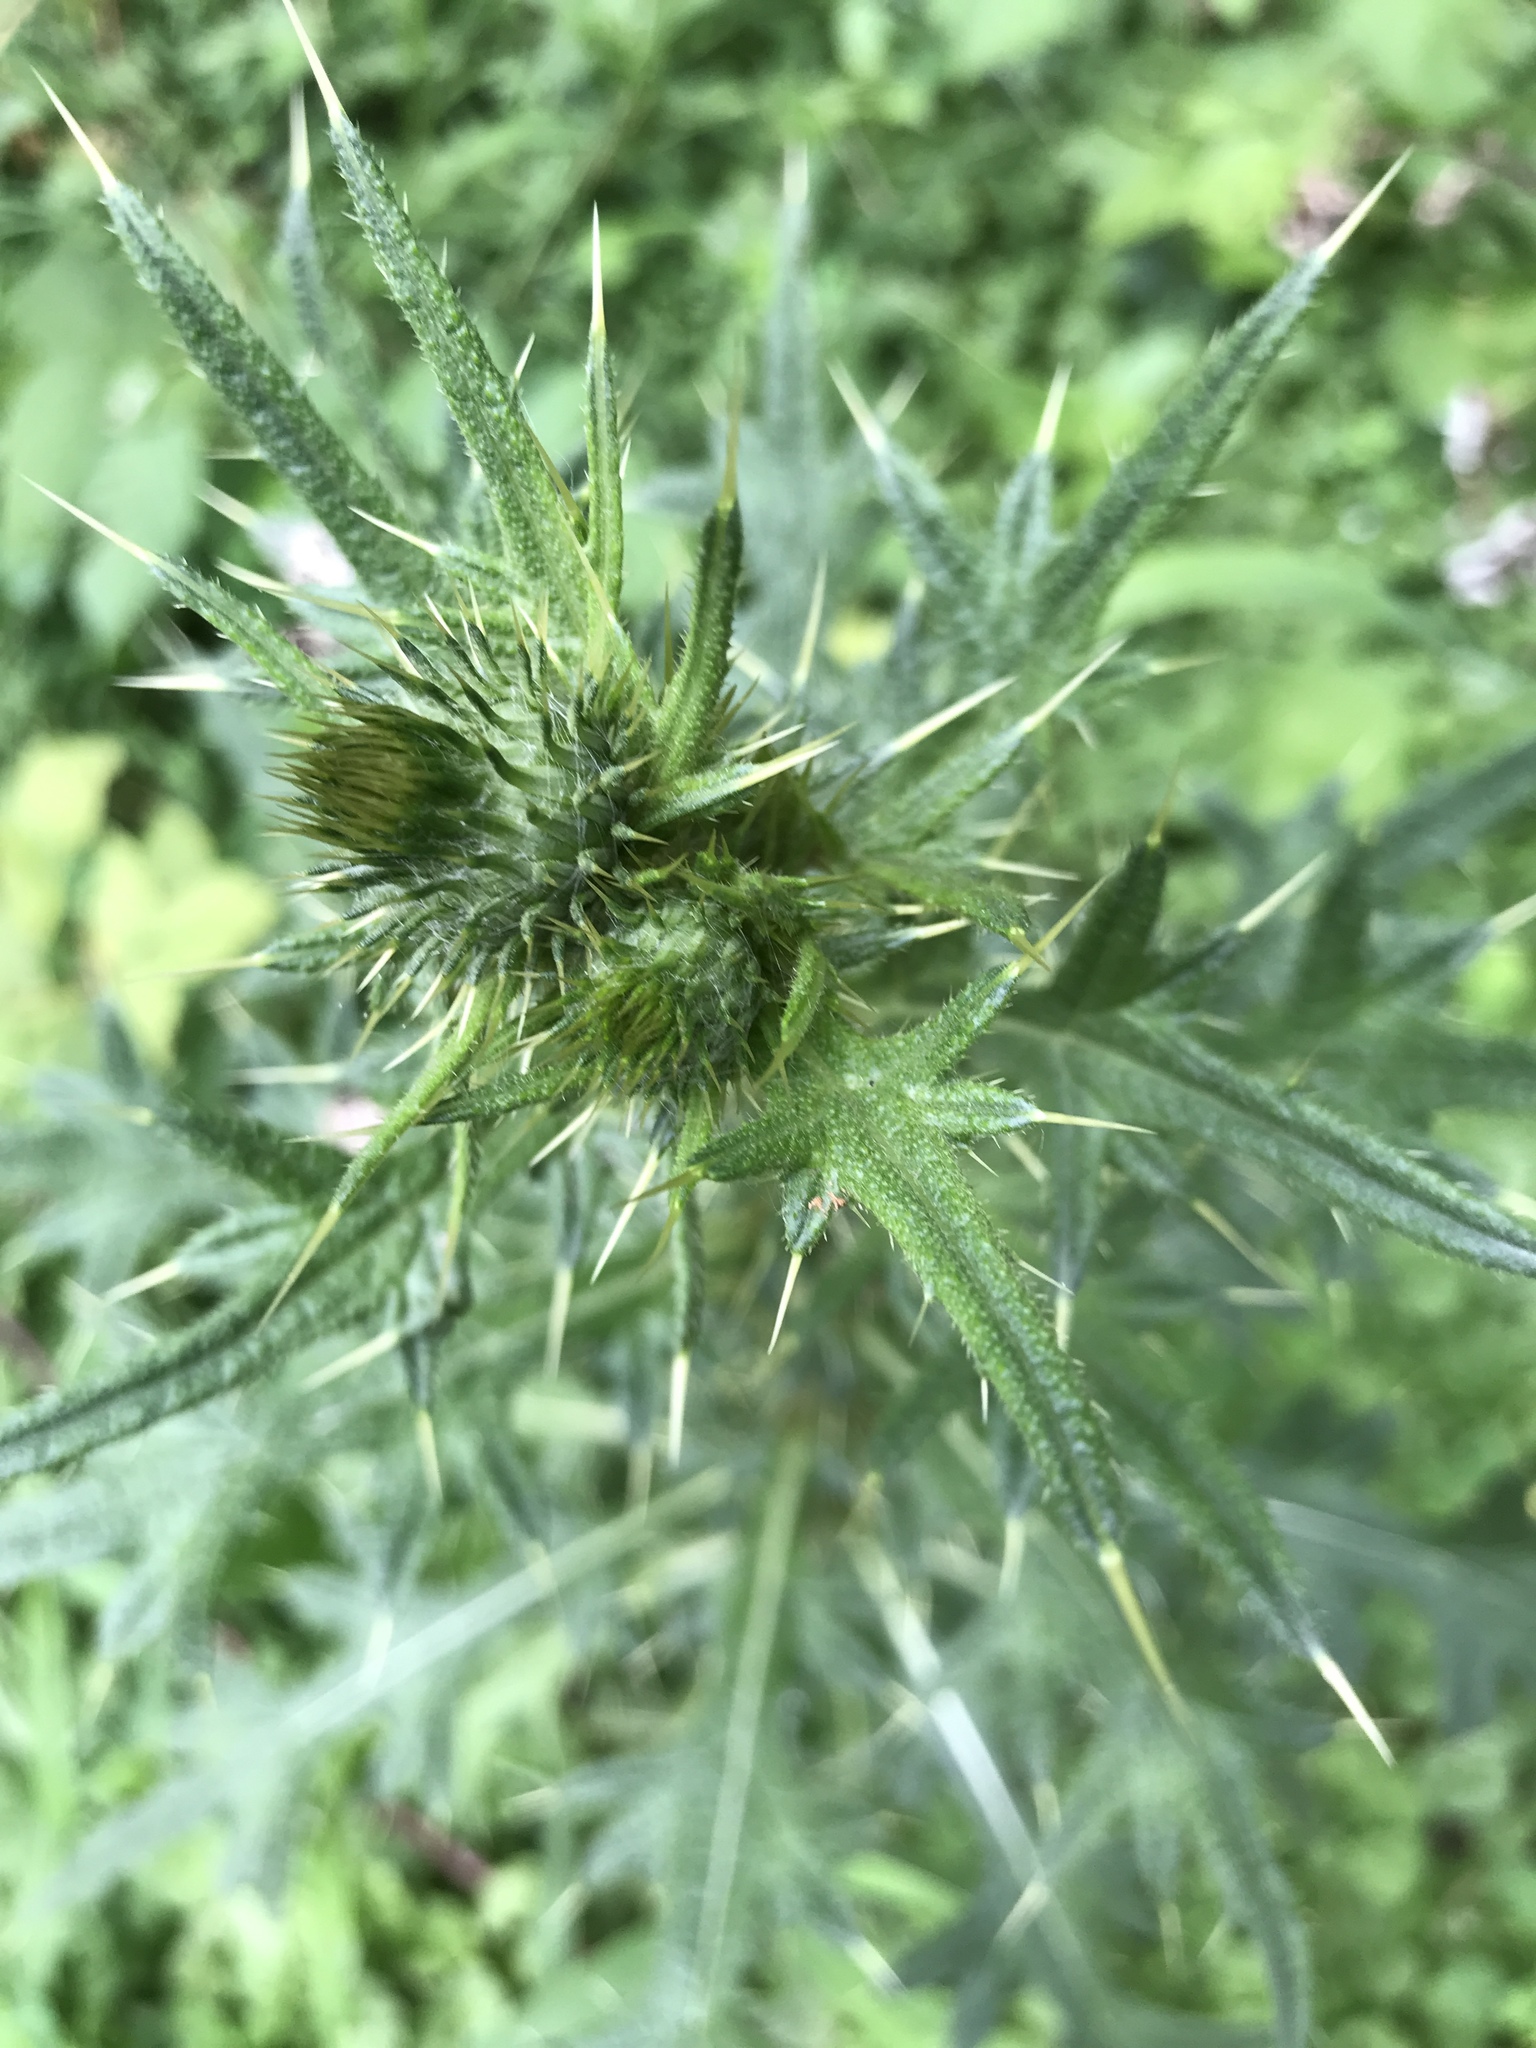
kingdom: Plantae
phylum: Tracheophyta
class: Magnoliopsida
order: Asterales
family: Asteraceae
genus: Cirsium
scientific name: Cirsium vulgare
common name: Bull thistle
